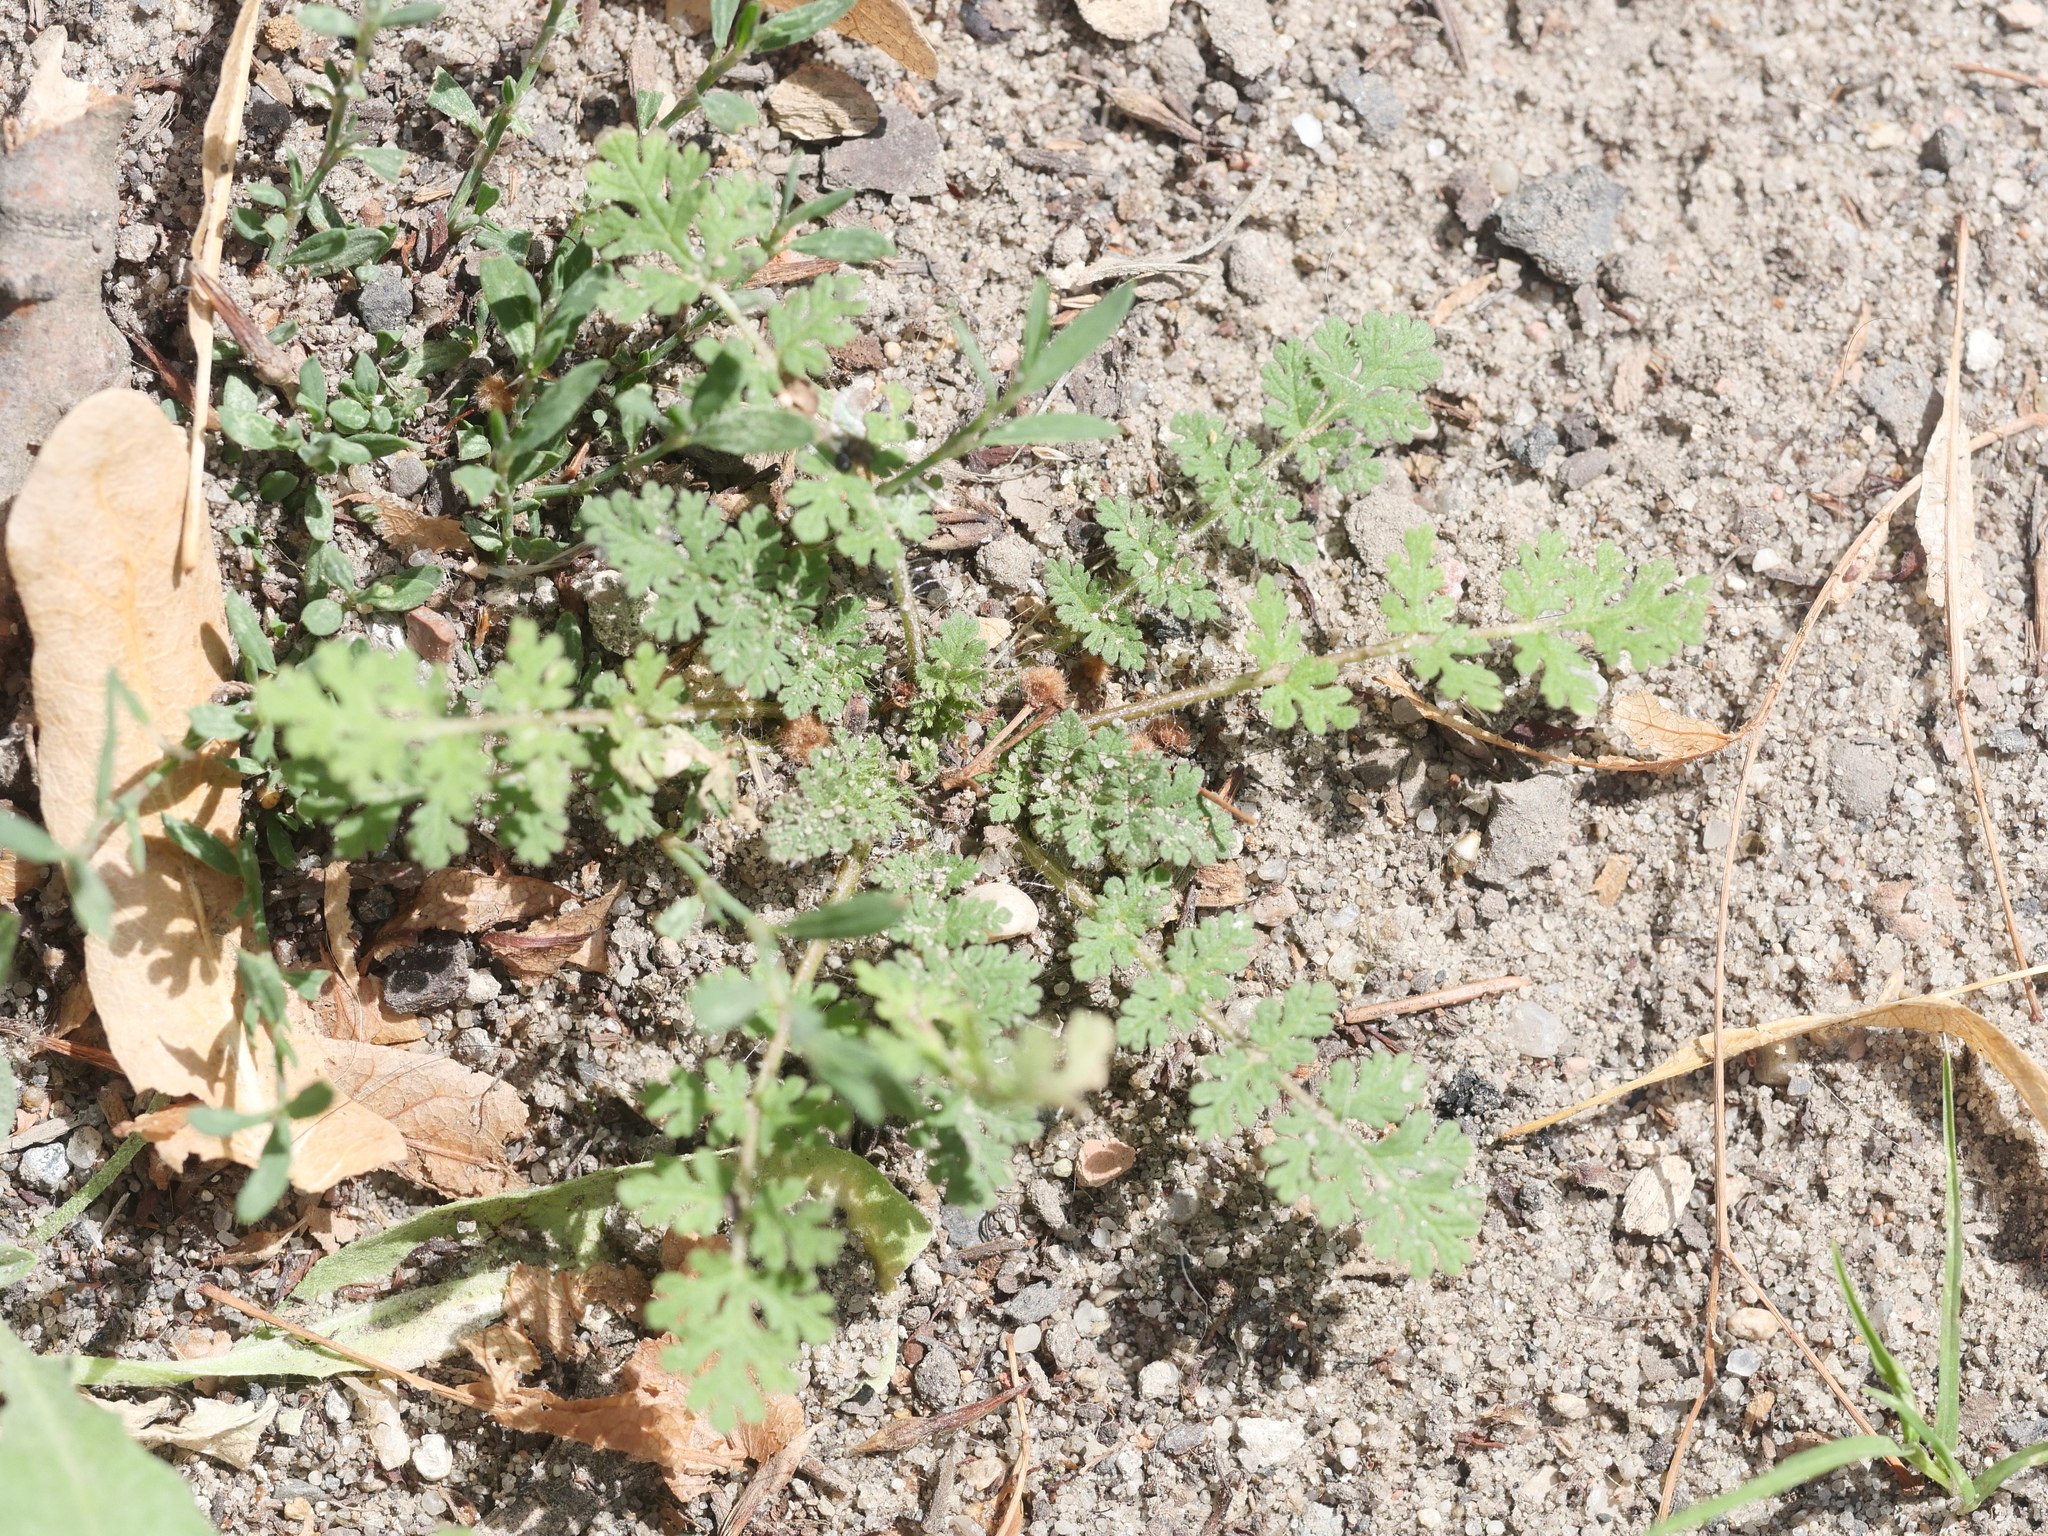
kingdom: Plantae
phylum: Tracheophyta
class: Magnoliopsida
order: Geraniales
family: Geraniaceae
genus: Erodium
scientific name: Erodium cicutarium
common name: Common stork's-bill
